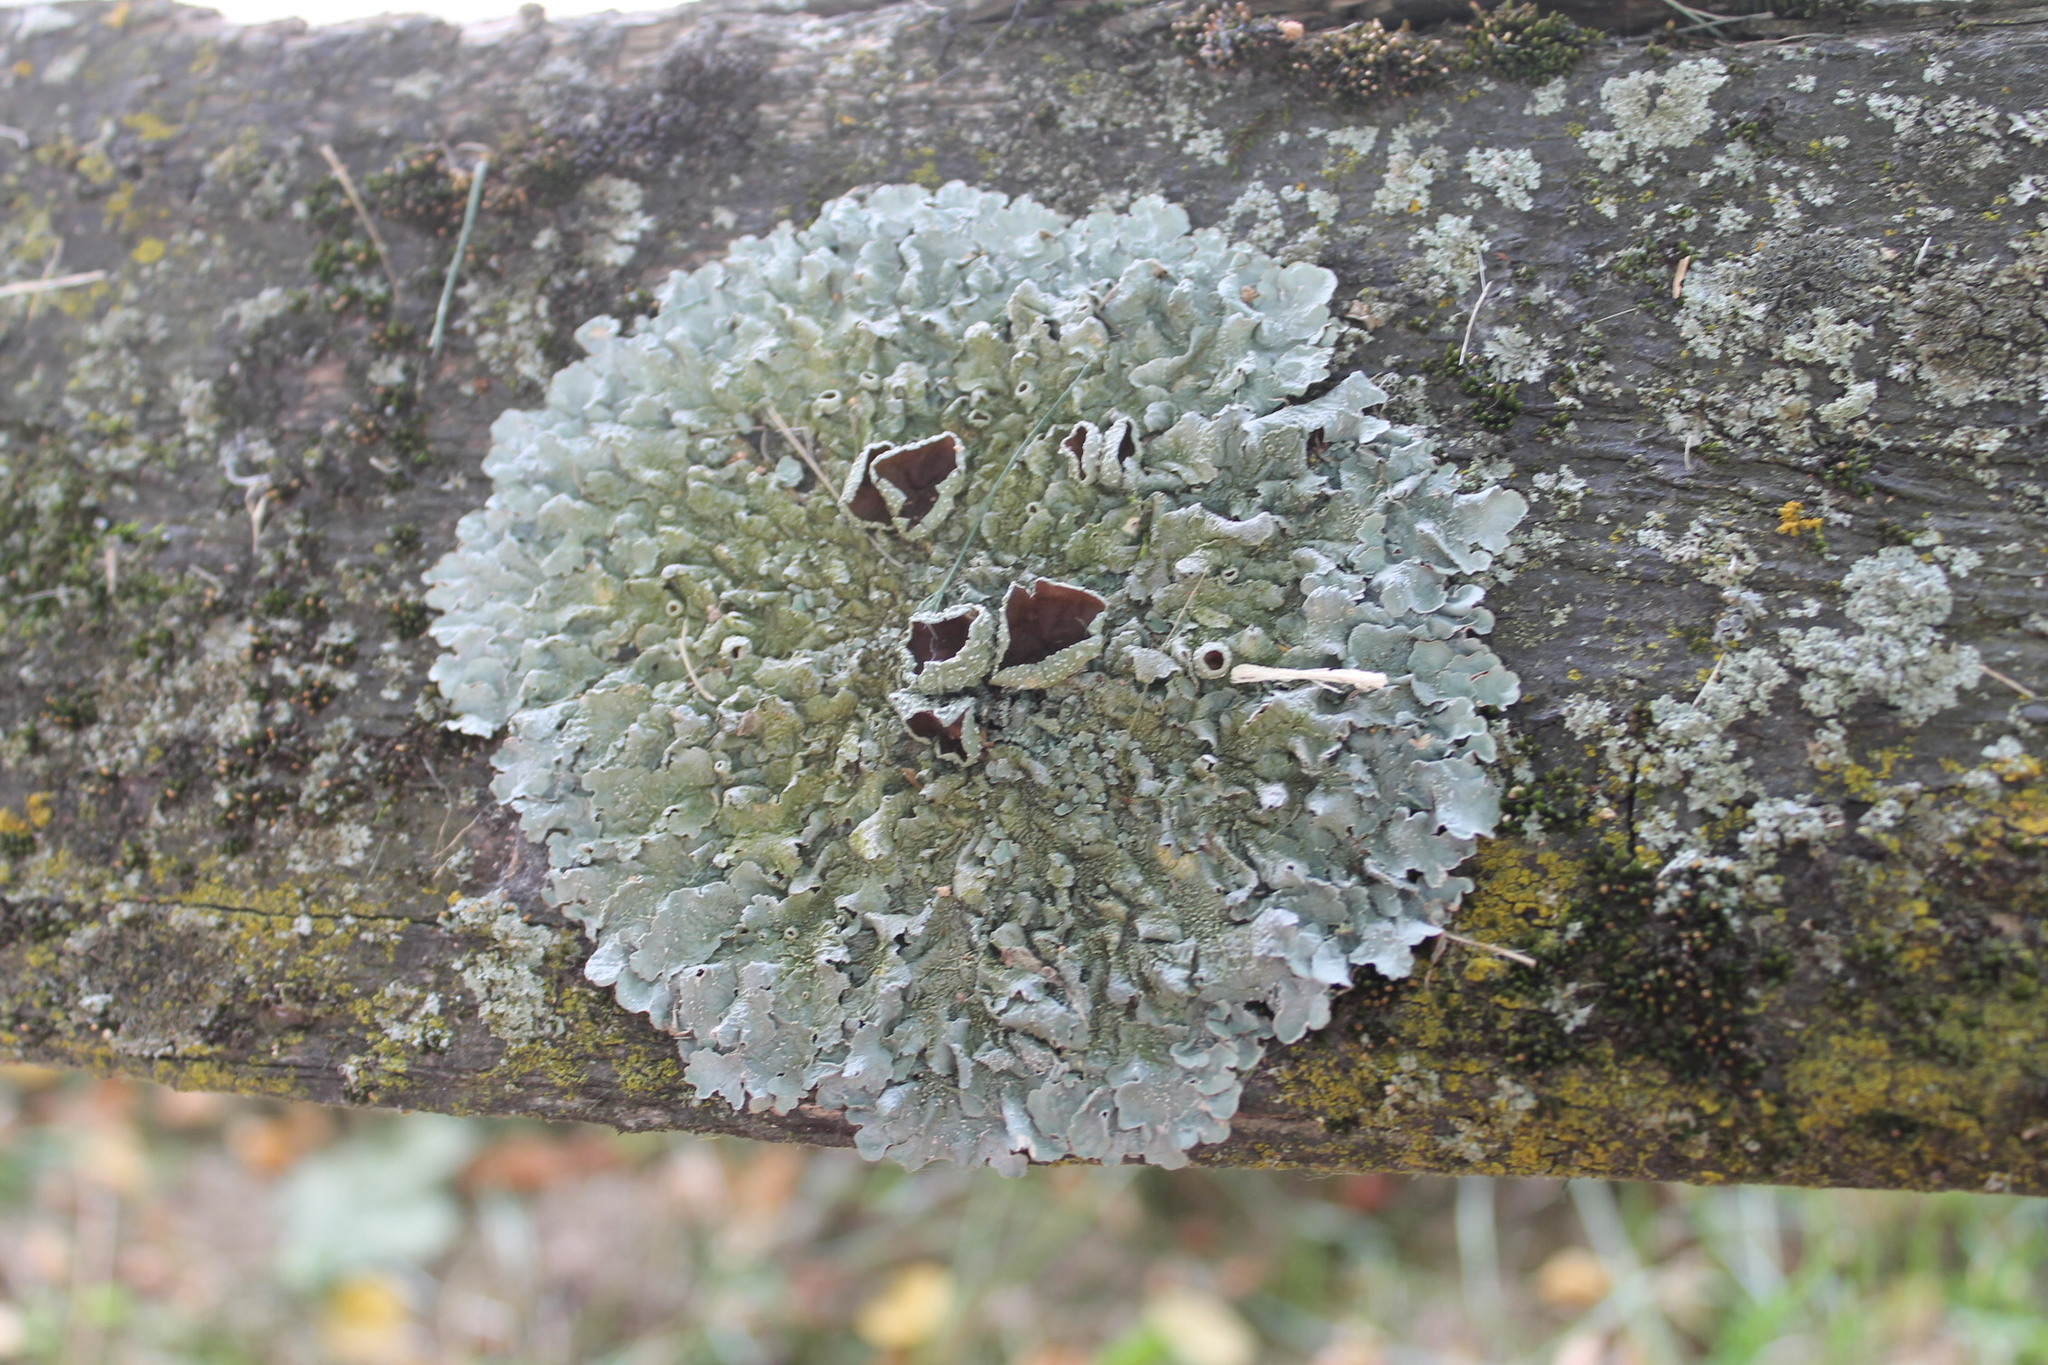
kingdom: Fungi
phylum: Ascomycota
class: Lecanoromycetes
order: Lecanorales
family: Parmeliaceae
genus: Punctelia
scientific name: Punctelia bolliana
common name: Eastern speckled shield lichen
